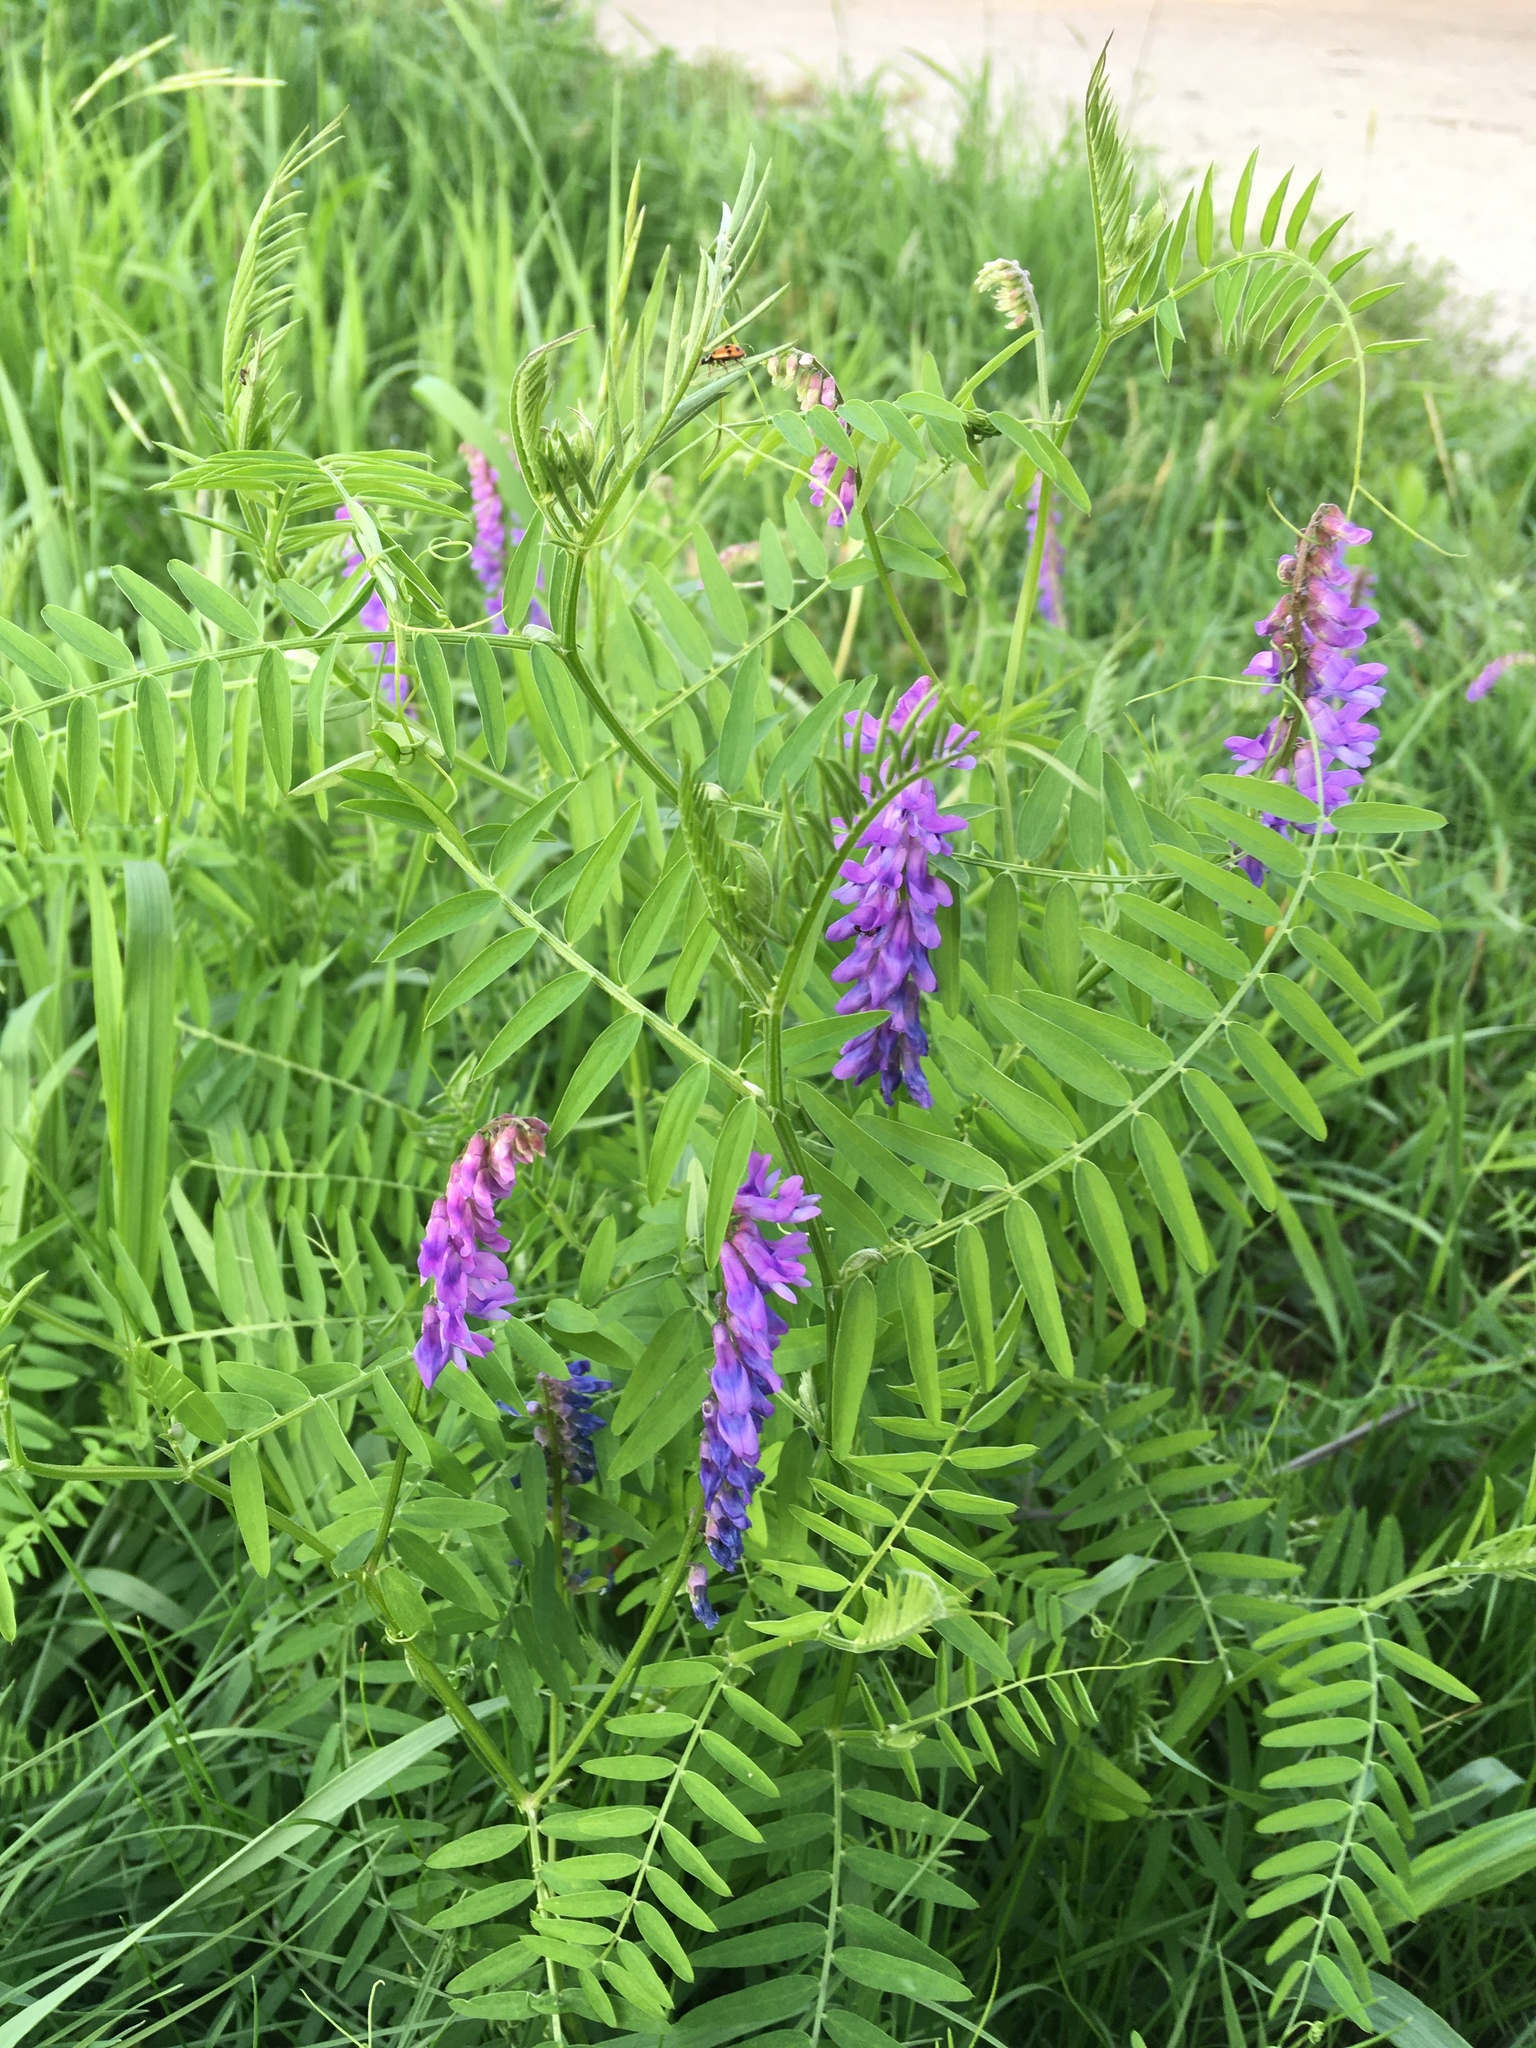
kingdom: Plantae
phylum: Tracheophyta
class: Magnoliopsida
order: Fabales
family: Fabaceae
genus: Vicia
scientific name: Vicia cracca
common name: Bird vetch
